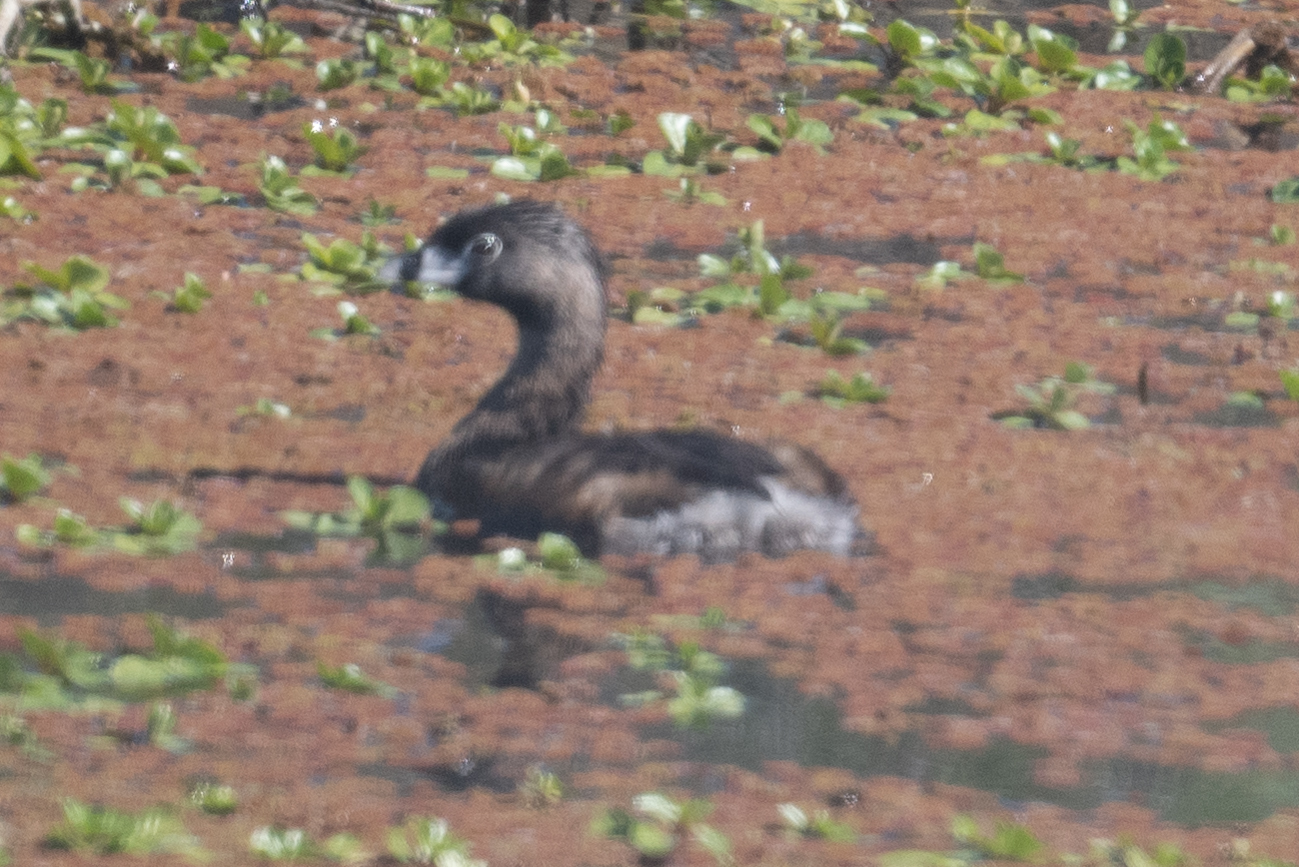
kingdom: Animalia
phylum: Chordata
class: Aves
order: Podicipediformes
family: Podicipedidae
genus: Podilymbus
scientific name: Podilymbus podiceps
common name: Pied-billed grebe
